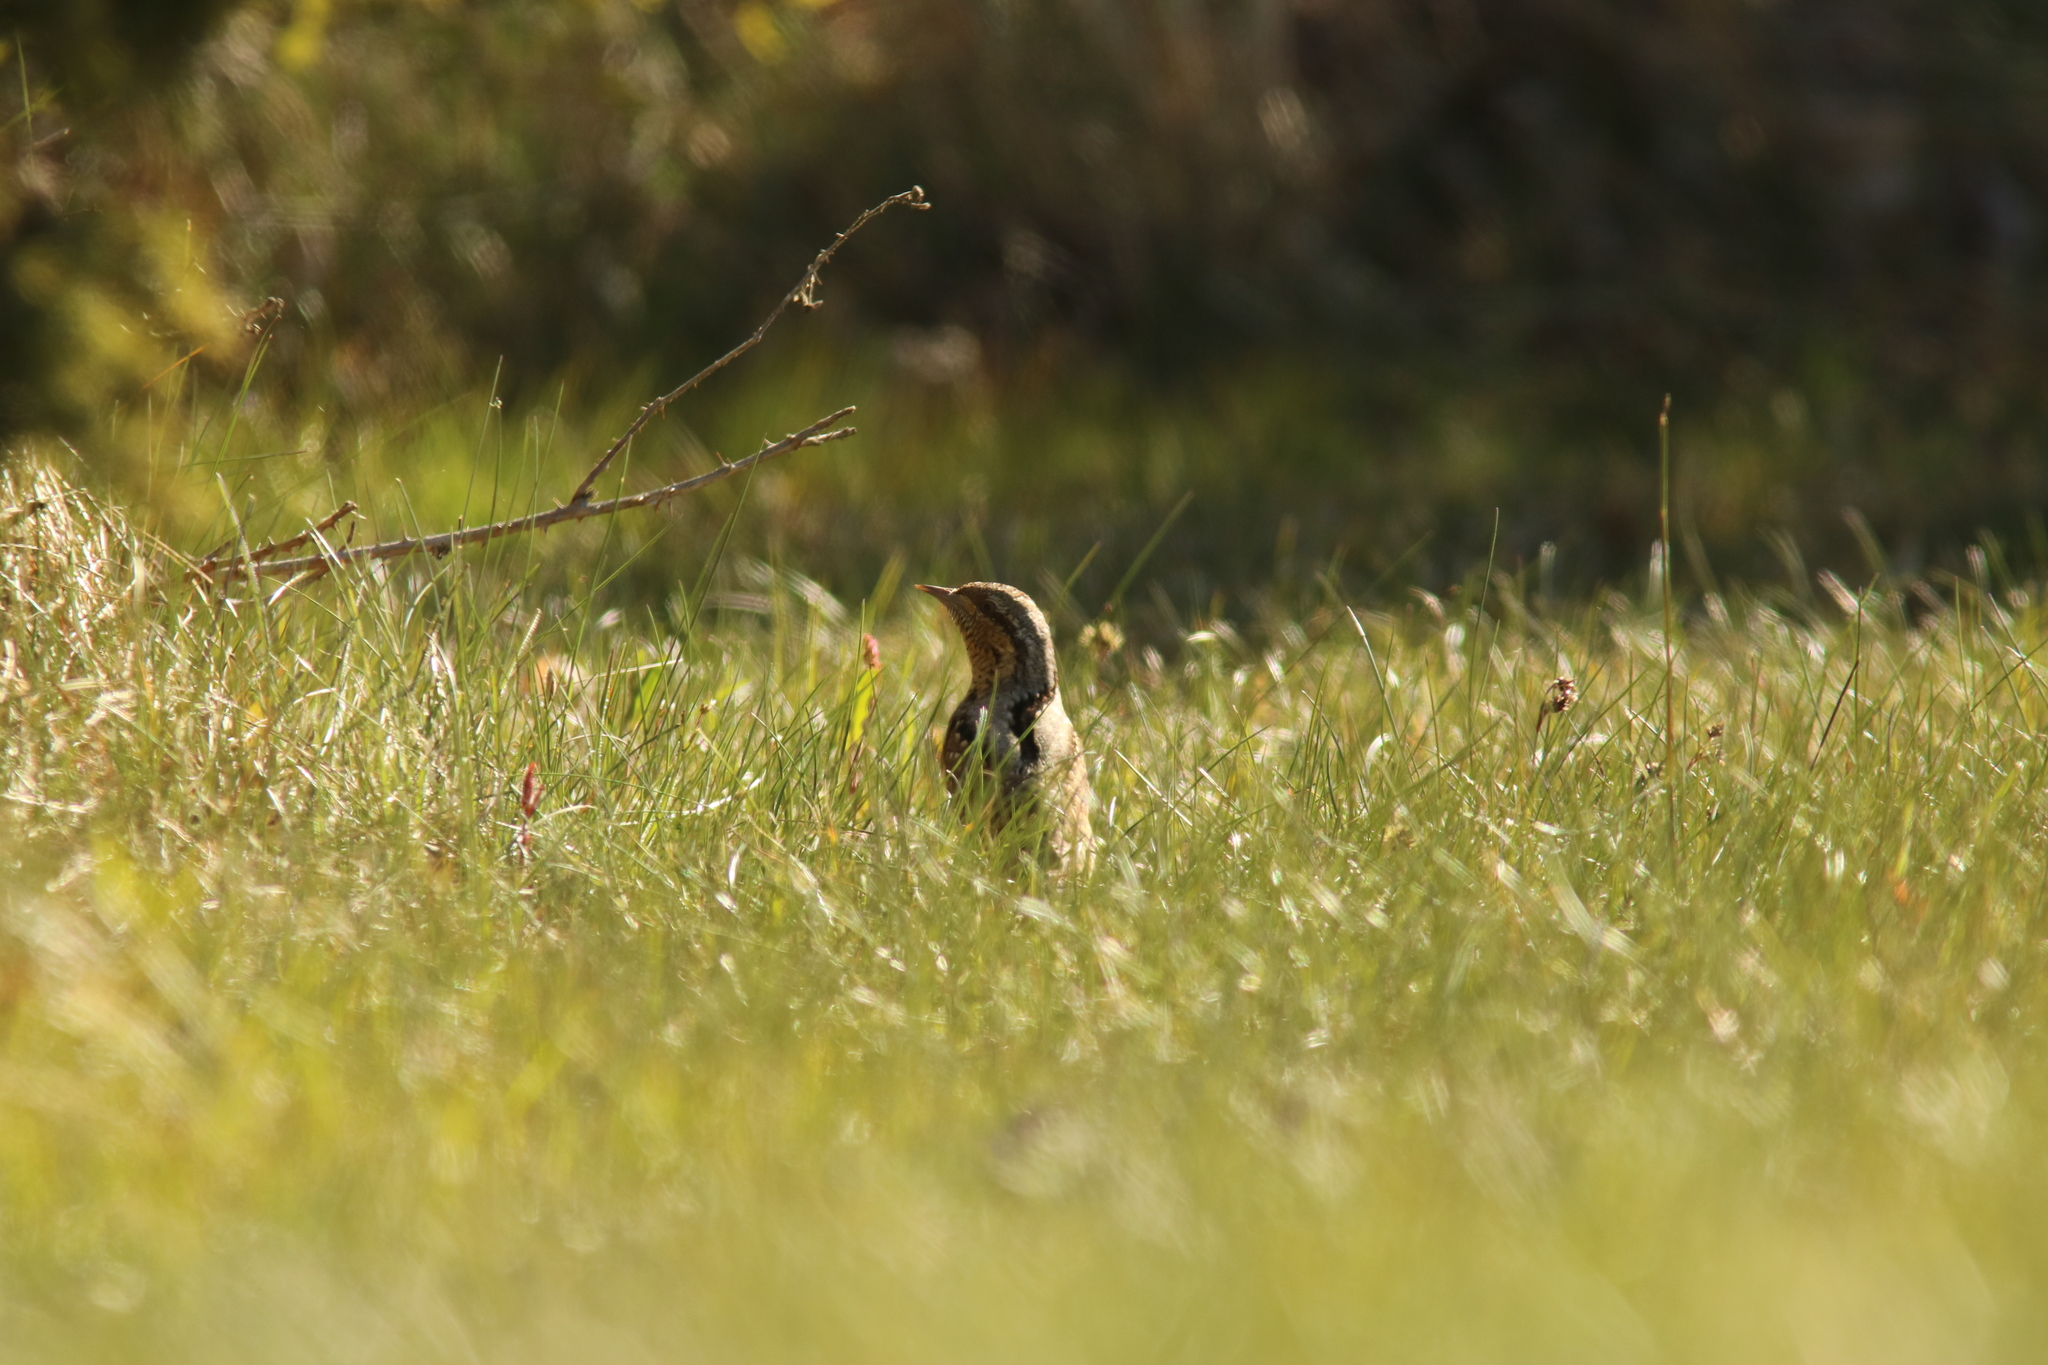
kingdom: Animalia
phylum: Chordata
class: Aves
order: Piciformes
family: Picidae
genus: Jynx
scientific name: Jynx torquilla
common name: Eurasian wryneck
